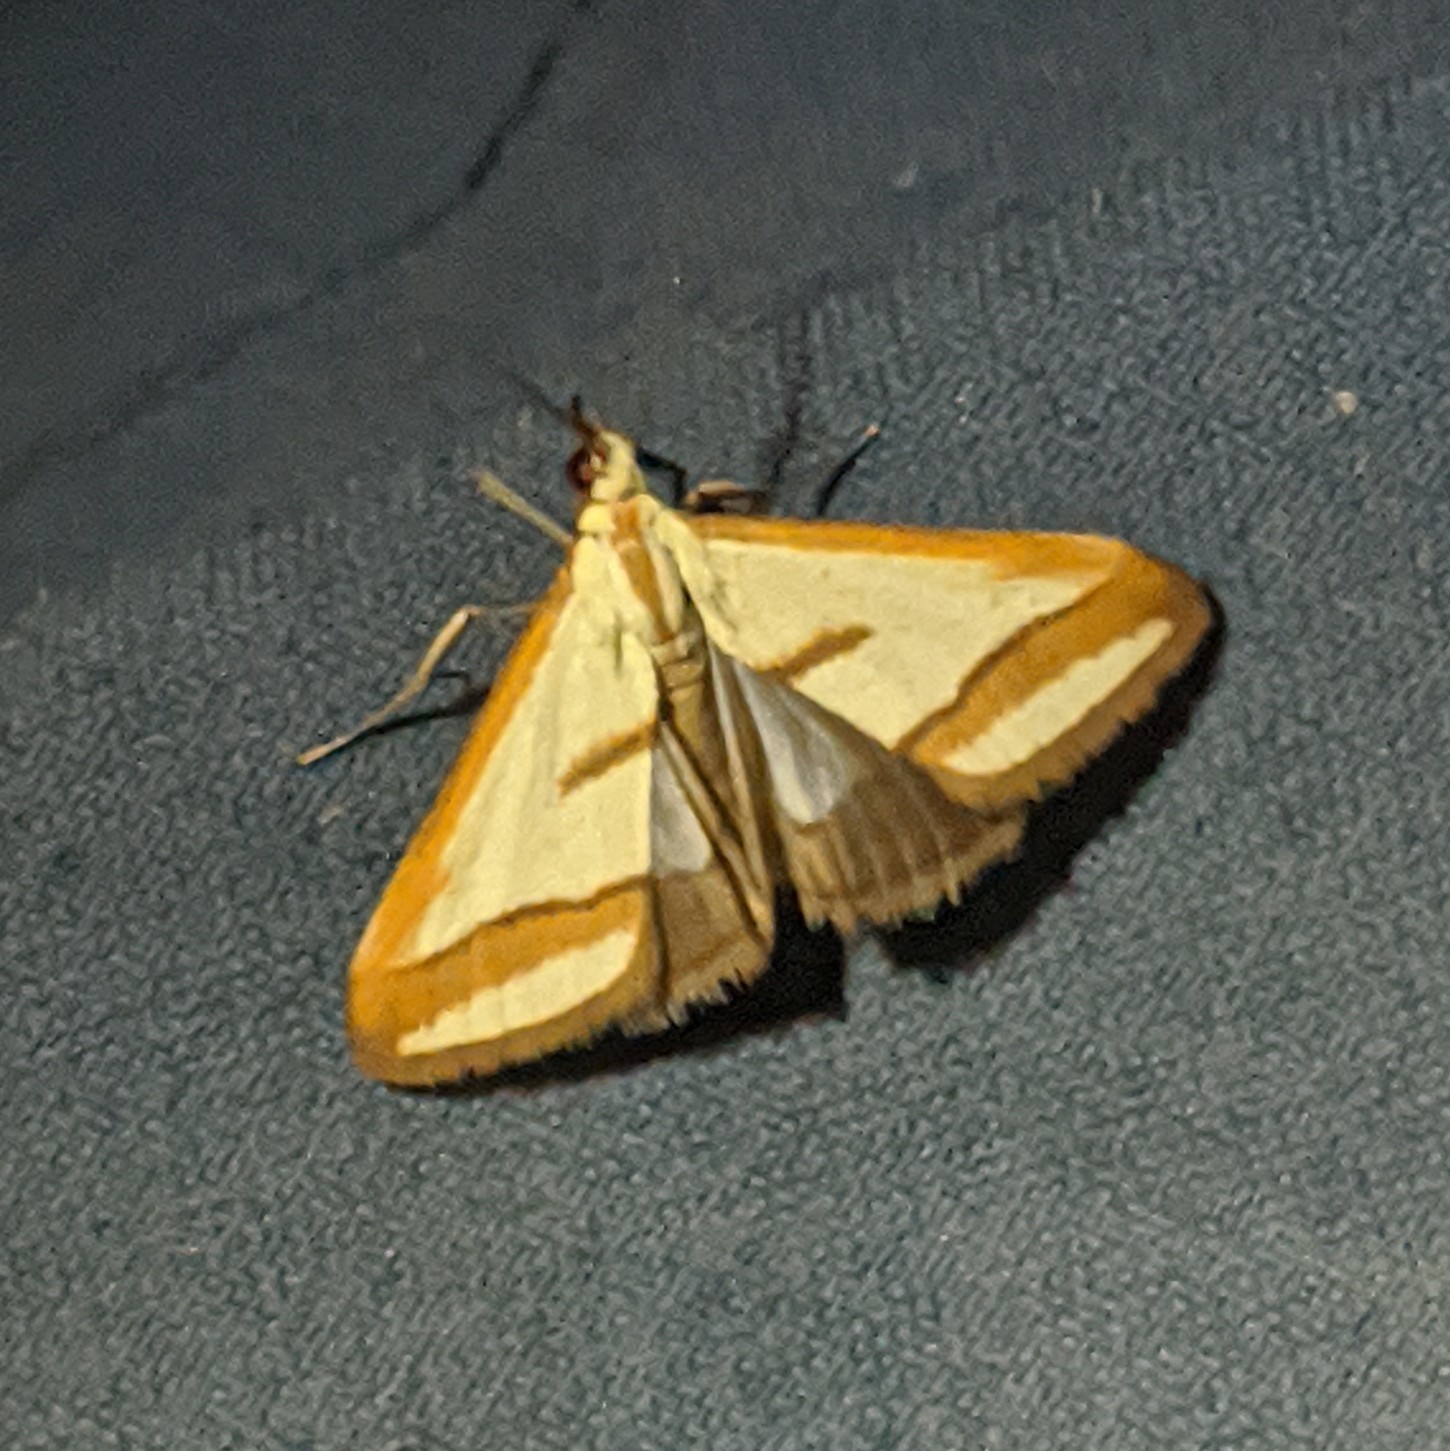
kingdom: Animalia
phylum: Arthropoda
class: Insecta
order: Lepidoptera
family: Crambidae
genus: Ephelis
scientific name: Ephelis pudicalis
